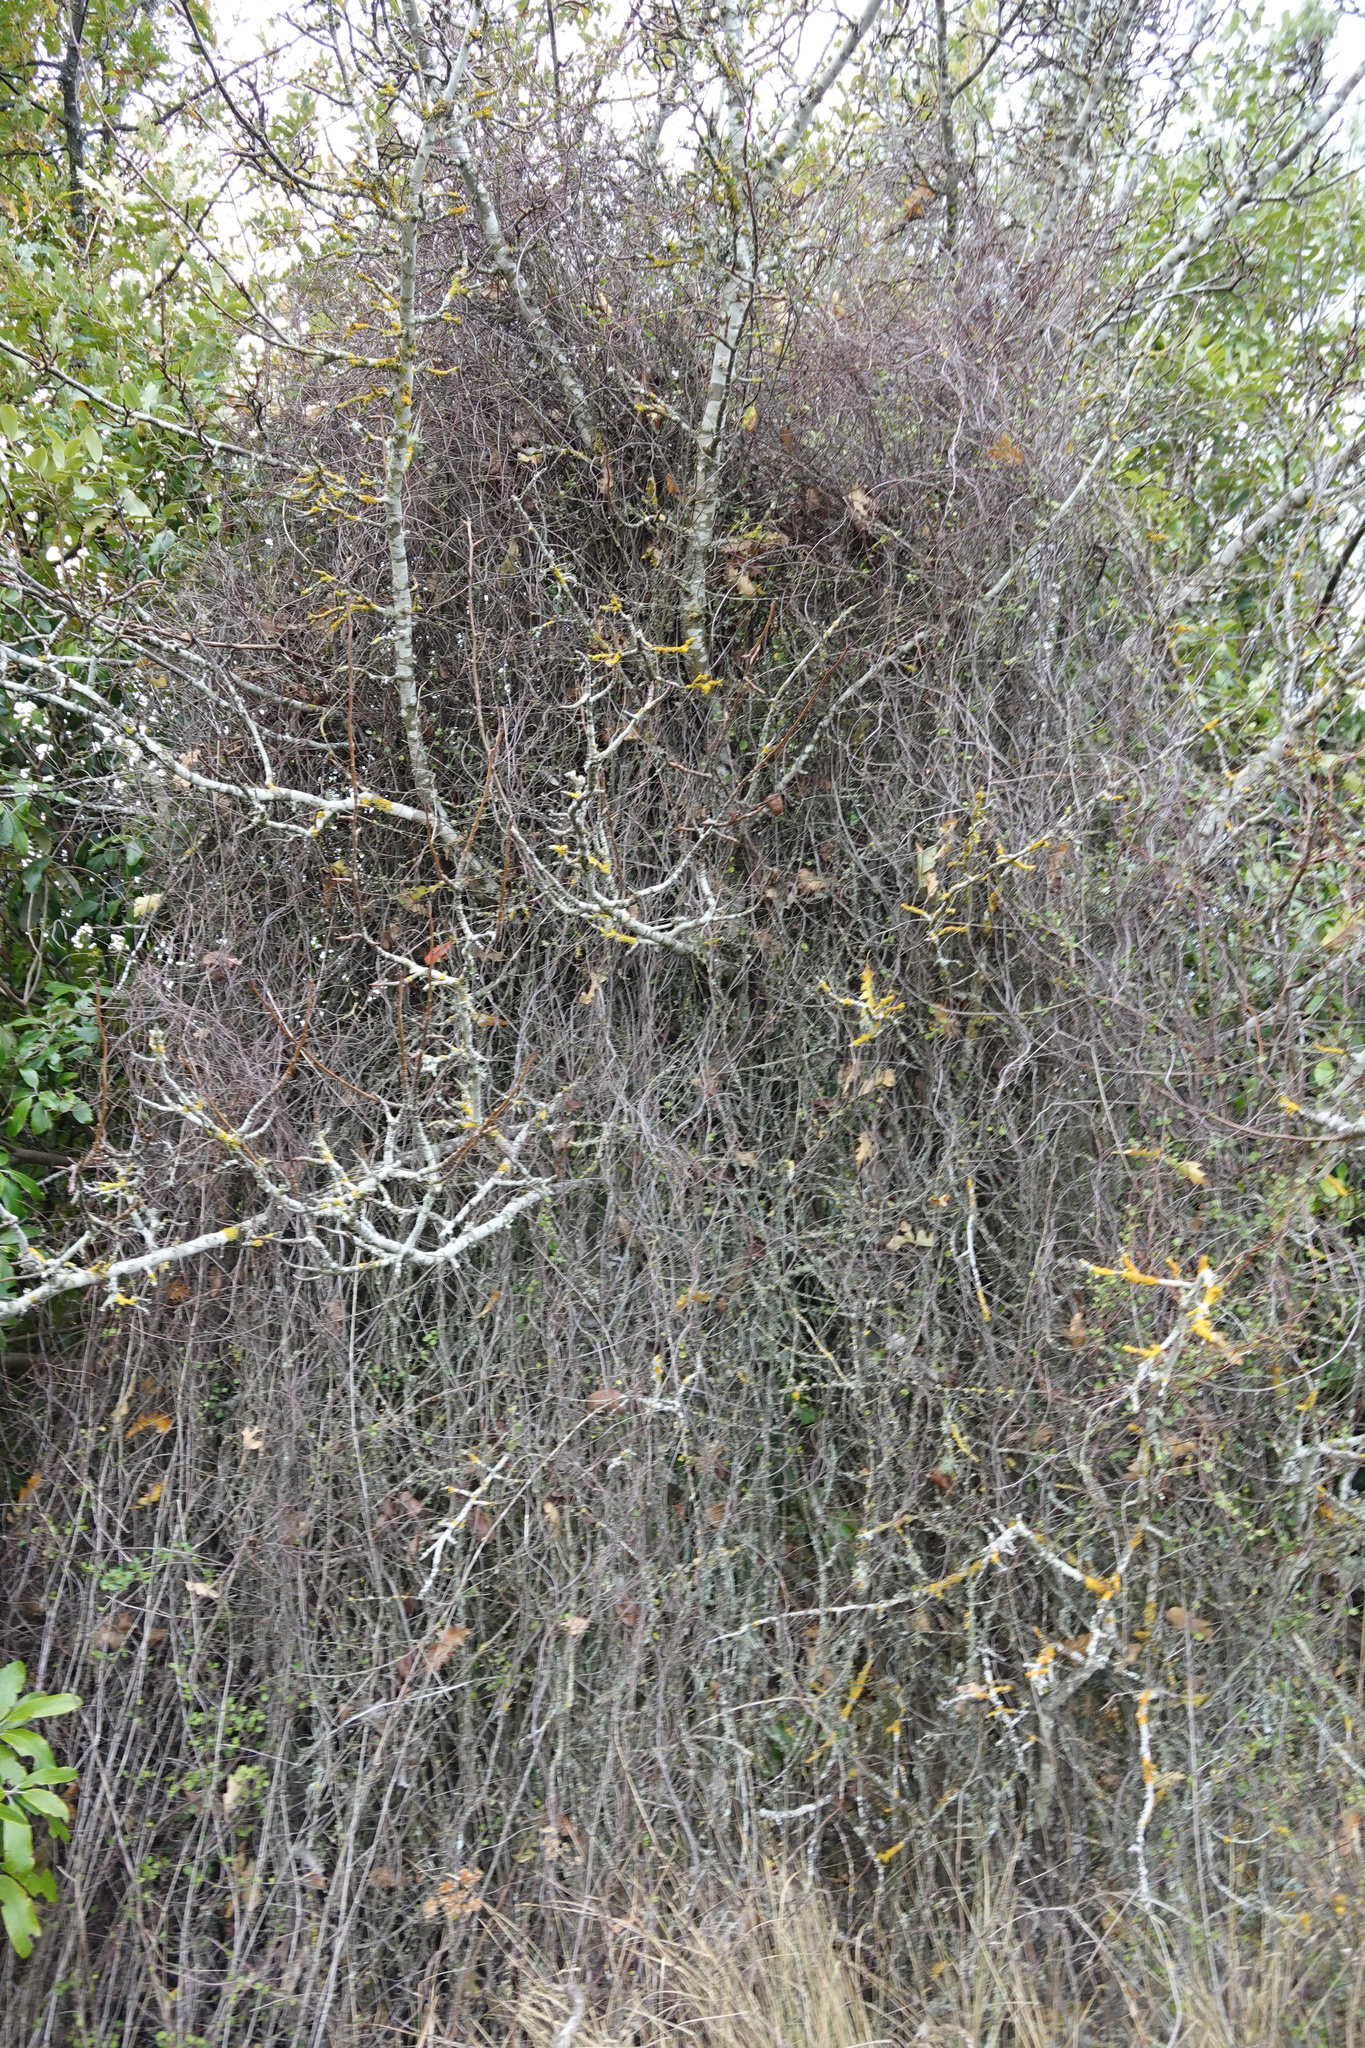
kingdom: Plantae
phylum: Tracheophyta
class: Magnoliopsida
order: Caryophyllales
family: Polygonaceae
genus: Muehlenbeckia
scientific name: Muehlenbeckia complexa
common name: Wireplant
